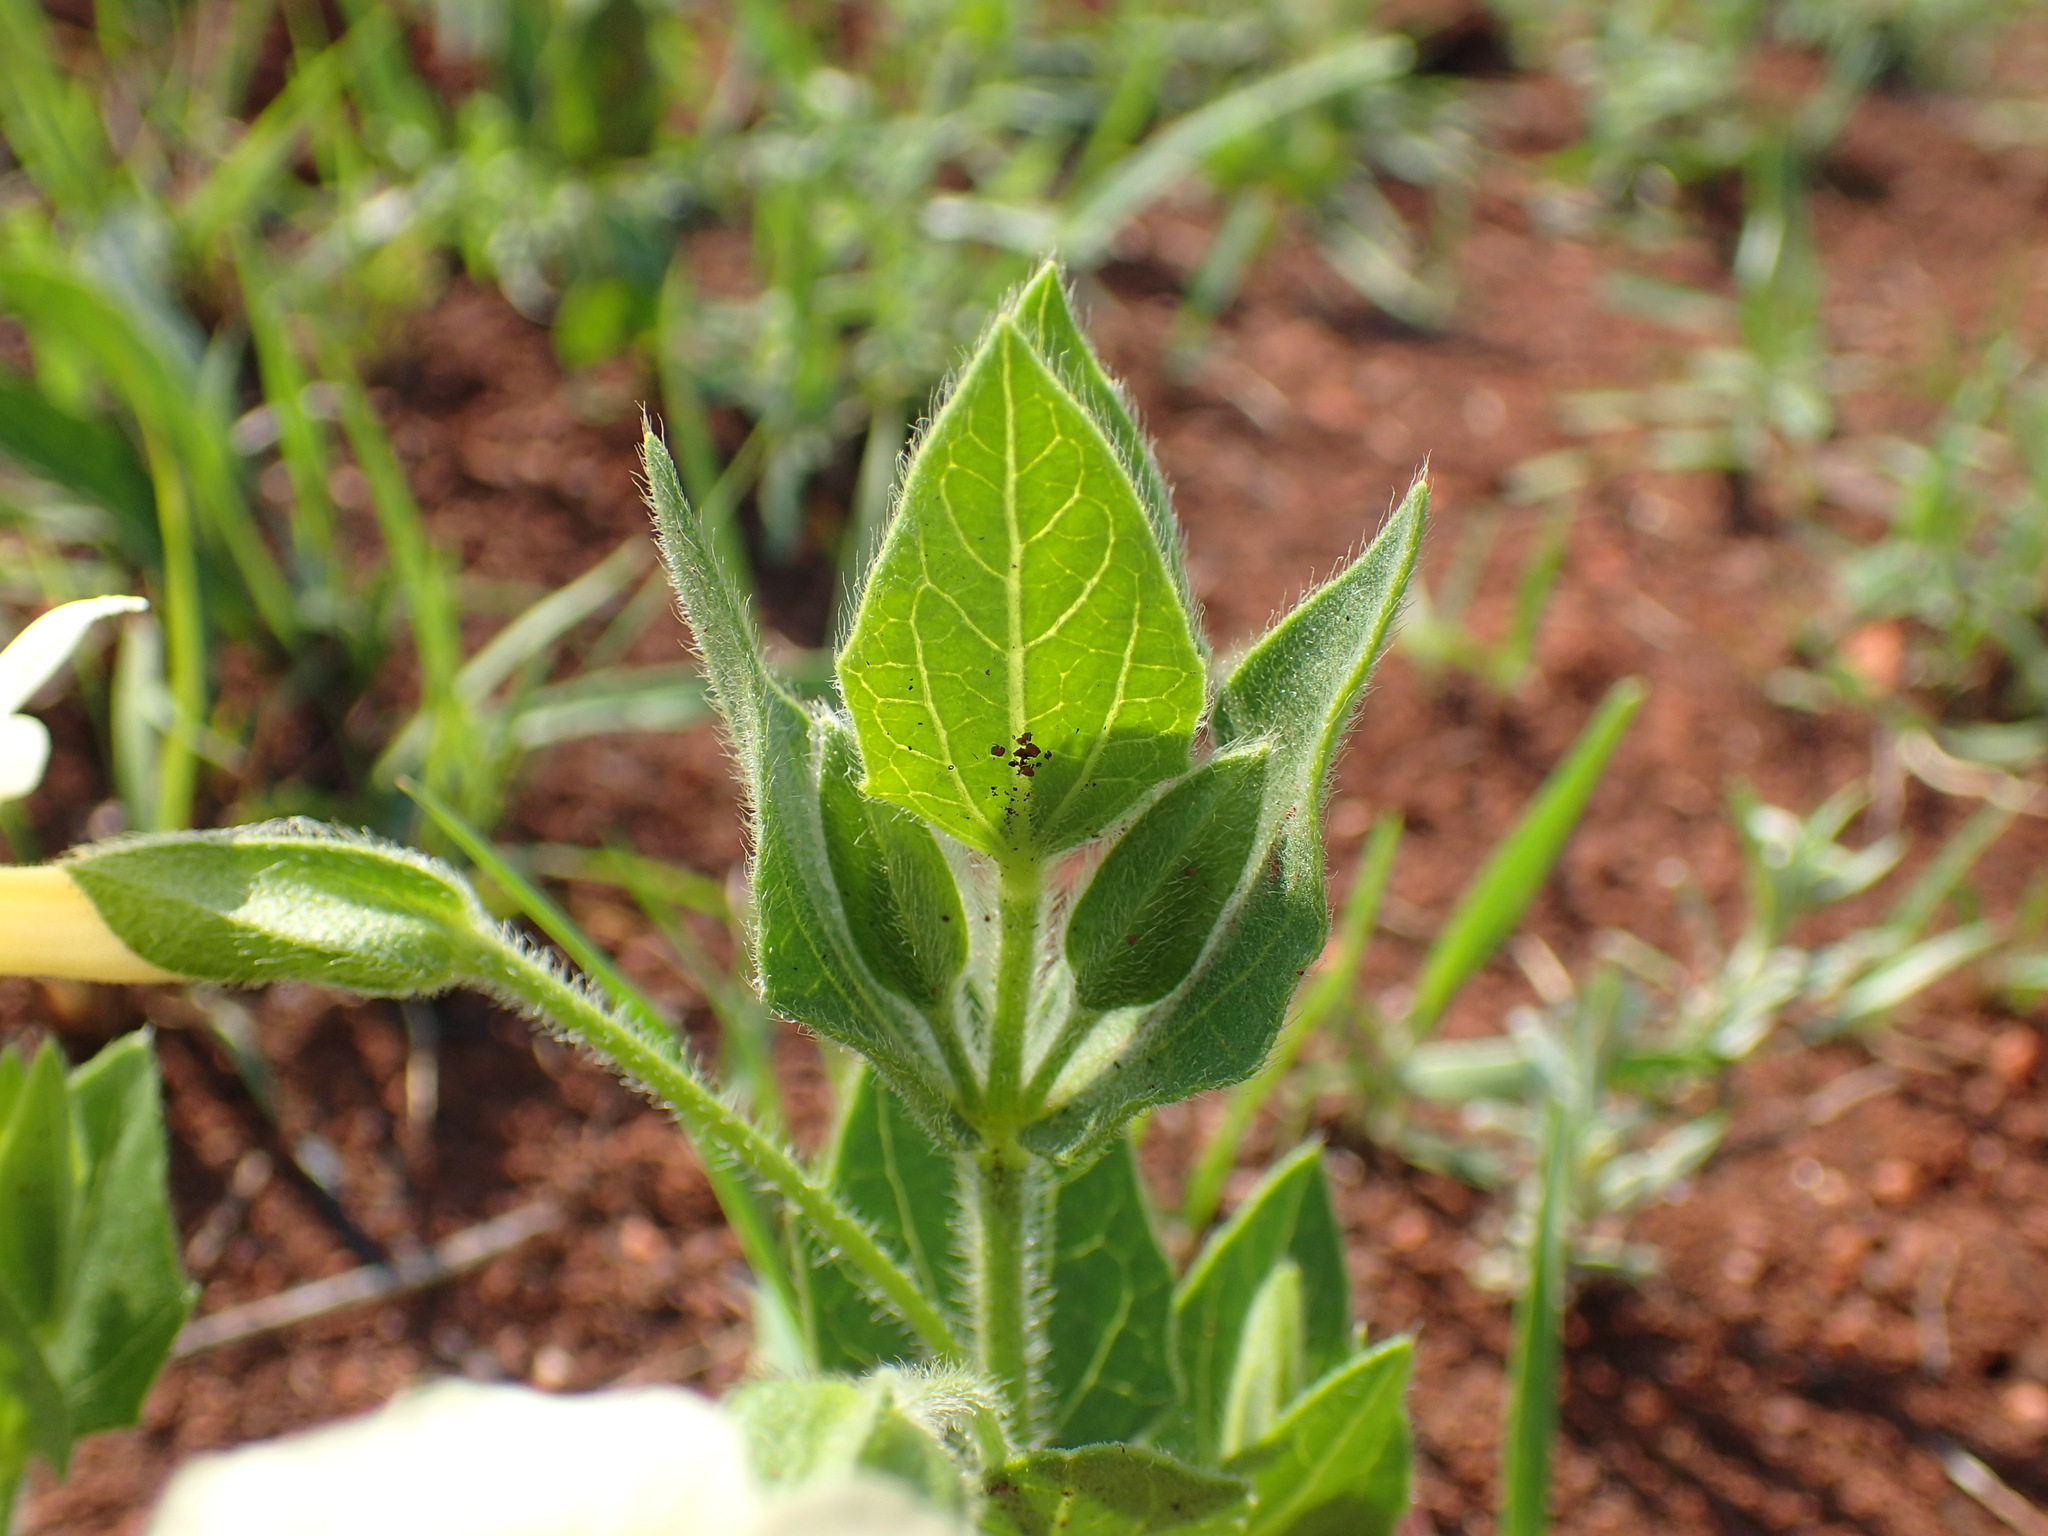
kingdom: Plantae
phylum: Tracheophyta
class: Magnoliopsida
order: Lamiales
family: Acanthaceae
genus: Thunbergia
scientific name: Thunbergia atriplicifolia
